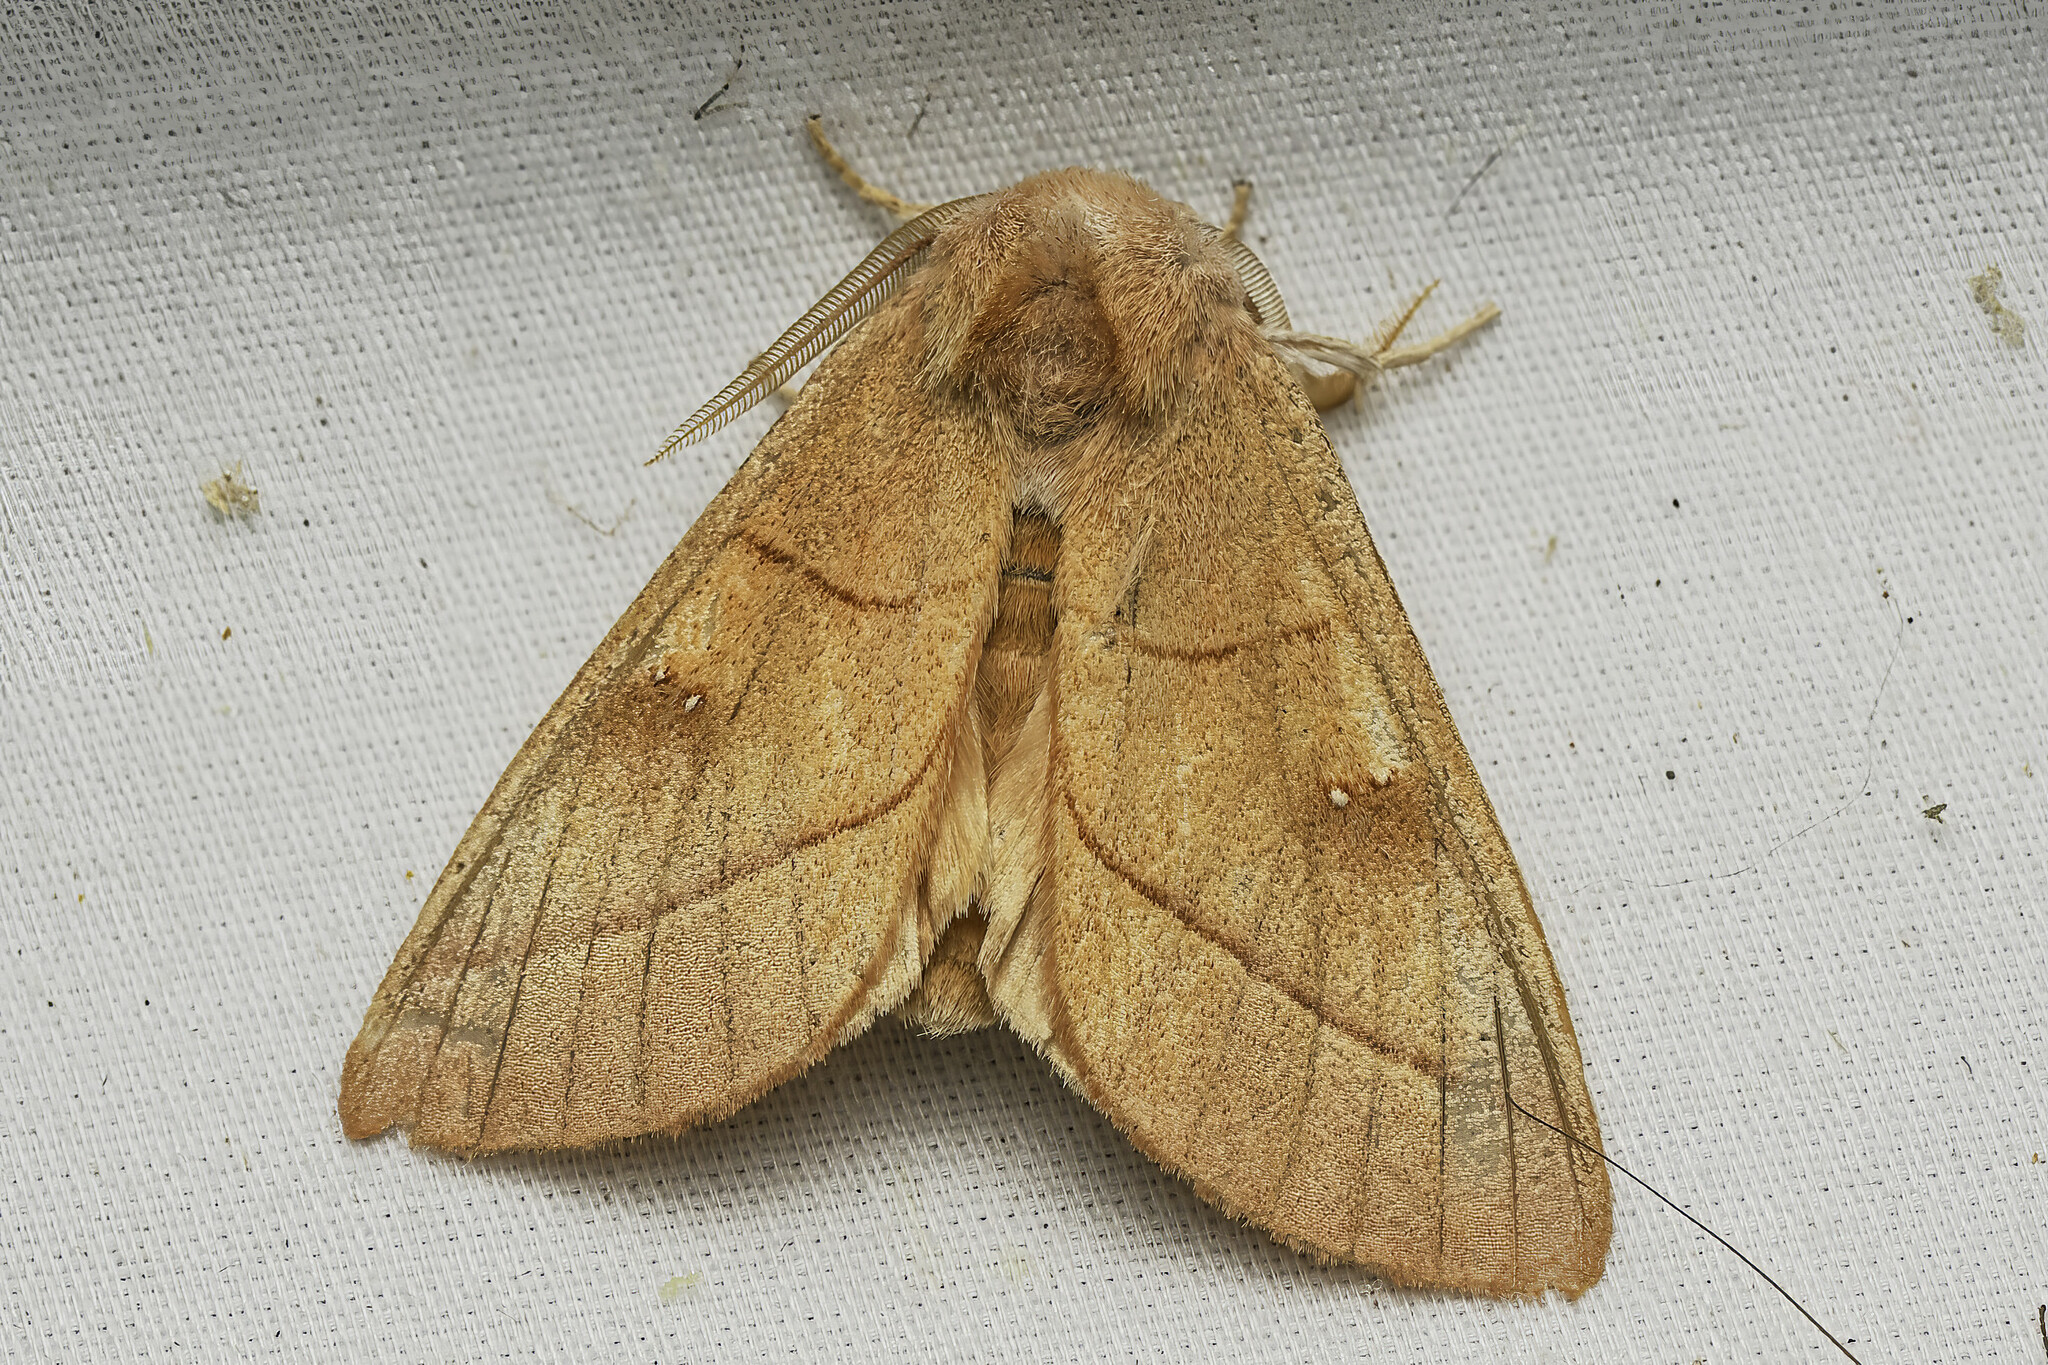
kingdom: Animalia
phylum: Arthropoda
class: Insecta
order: Lepidoptera
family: Notodontidae
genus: Nadata
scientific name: Nadata gibbosa
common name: White-dotted prominent
